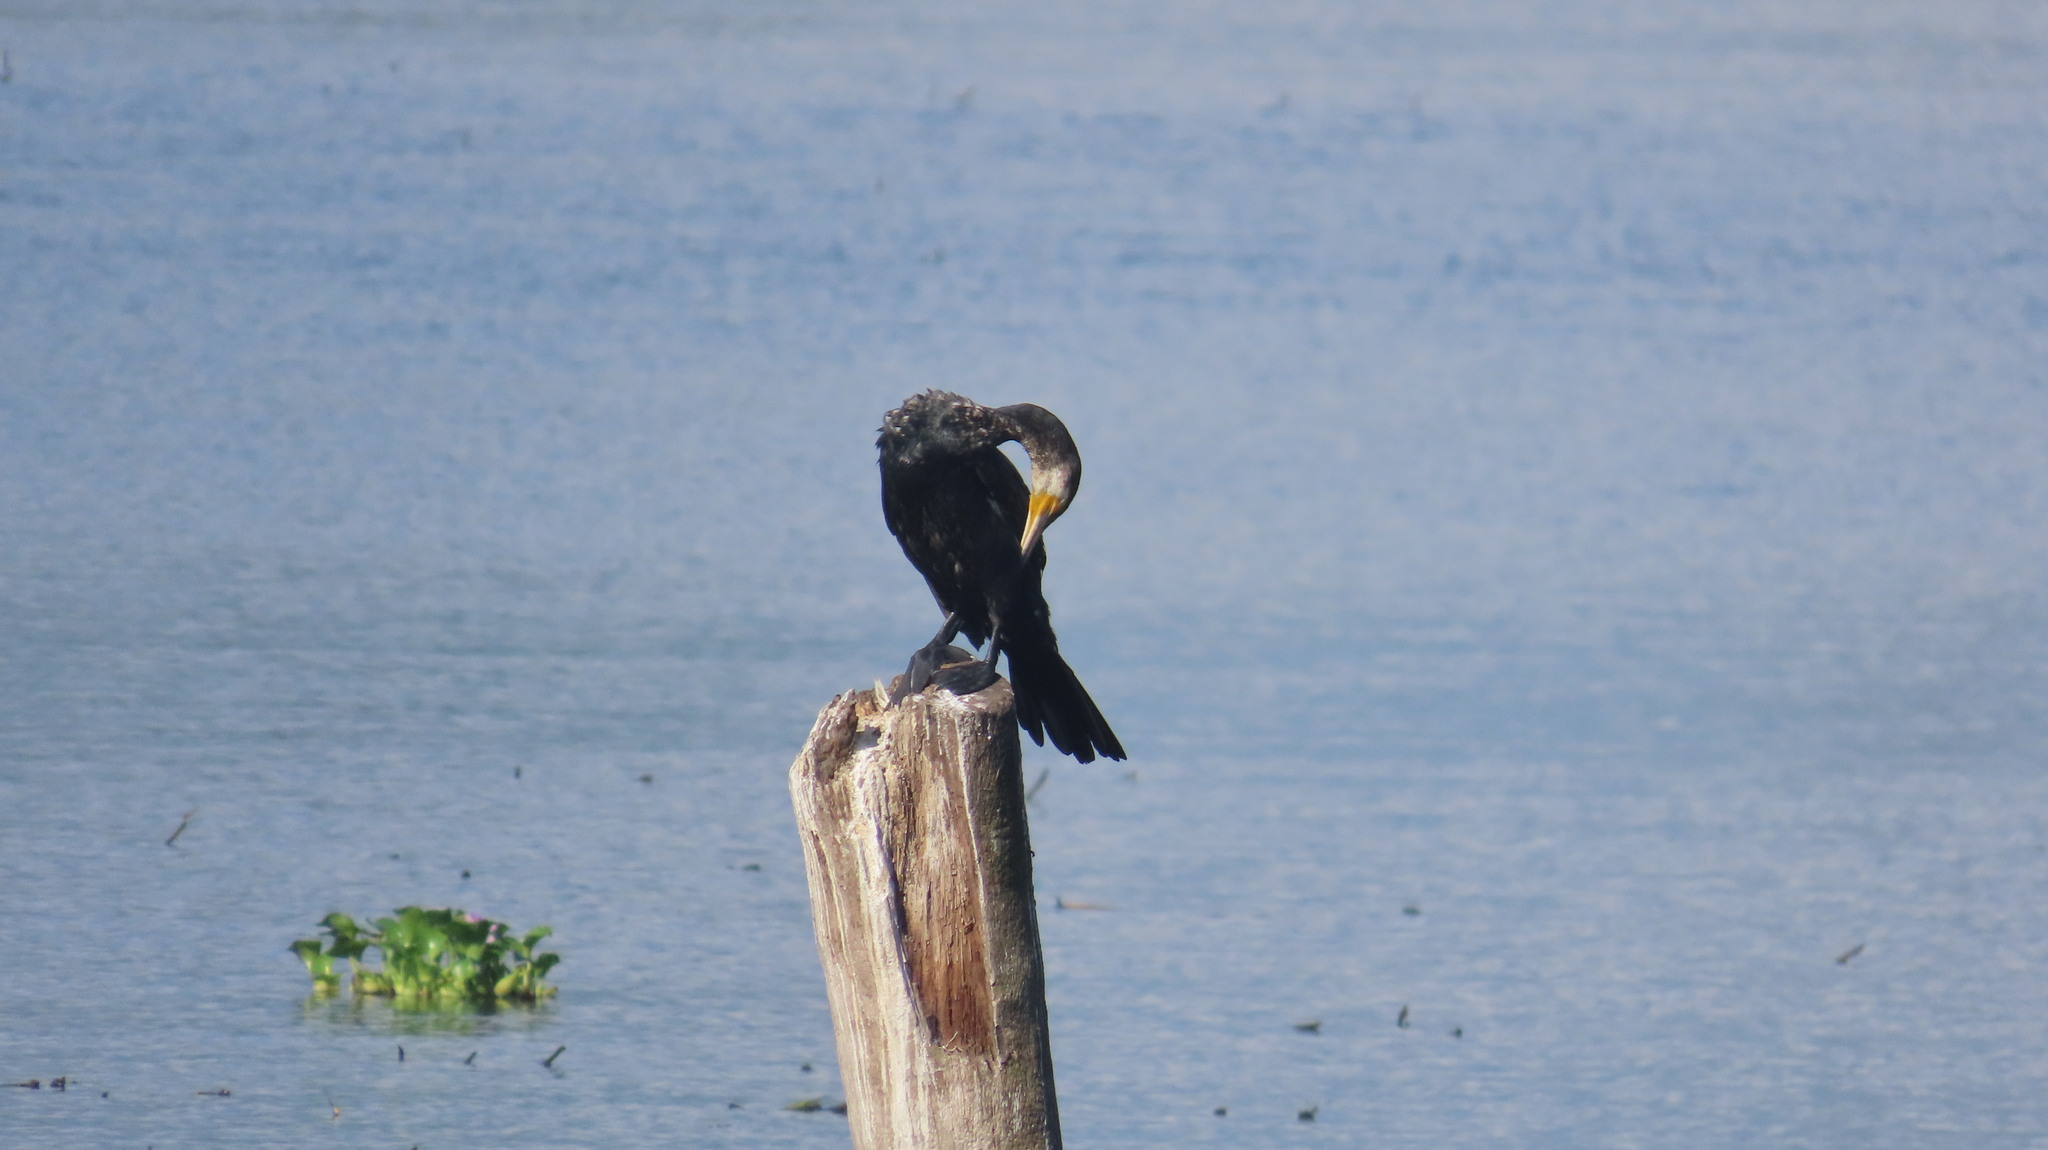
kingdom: Animalia
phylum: Chordata
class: Aves
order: Suliformes
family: Phalacrocoracidae
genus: Phalacrocorax
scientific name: Phalacrocorax carbo
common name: Great cormorant
